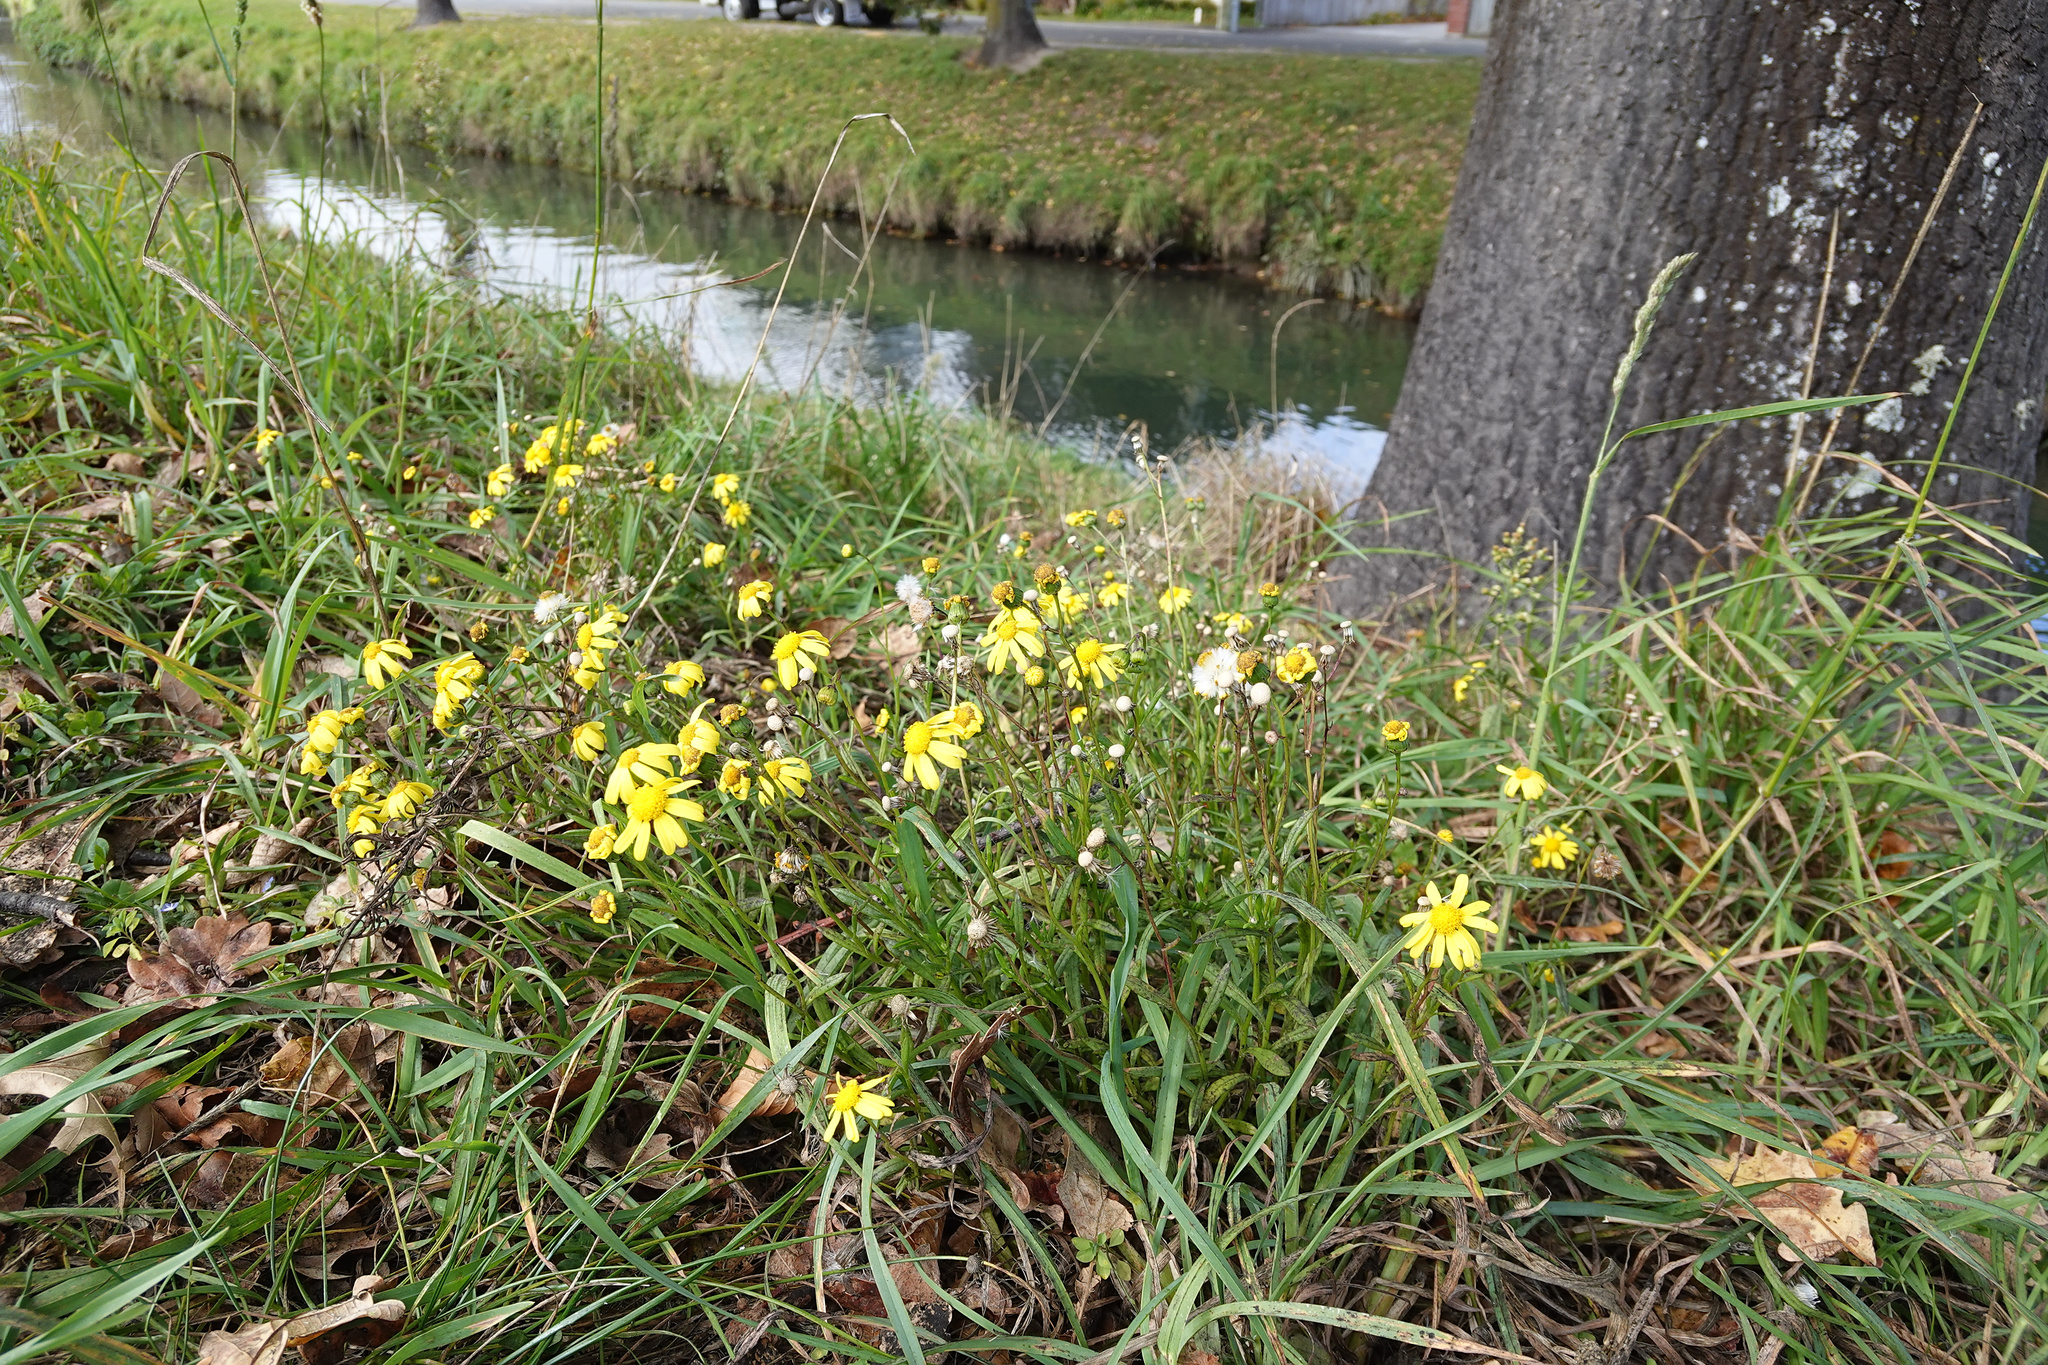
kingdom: Plantae
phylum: Tracheophyta
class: Magnoliopsida
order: Asterales
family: Asteraceae
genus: Senecio
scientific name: Senecio skirrhodon
